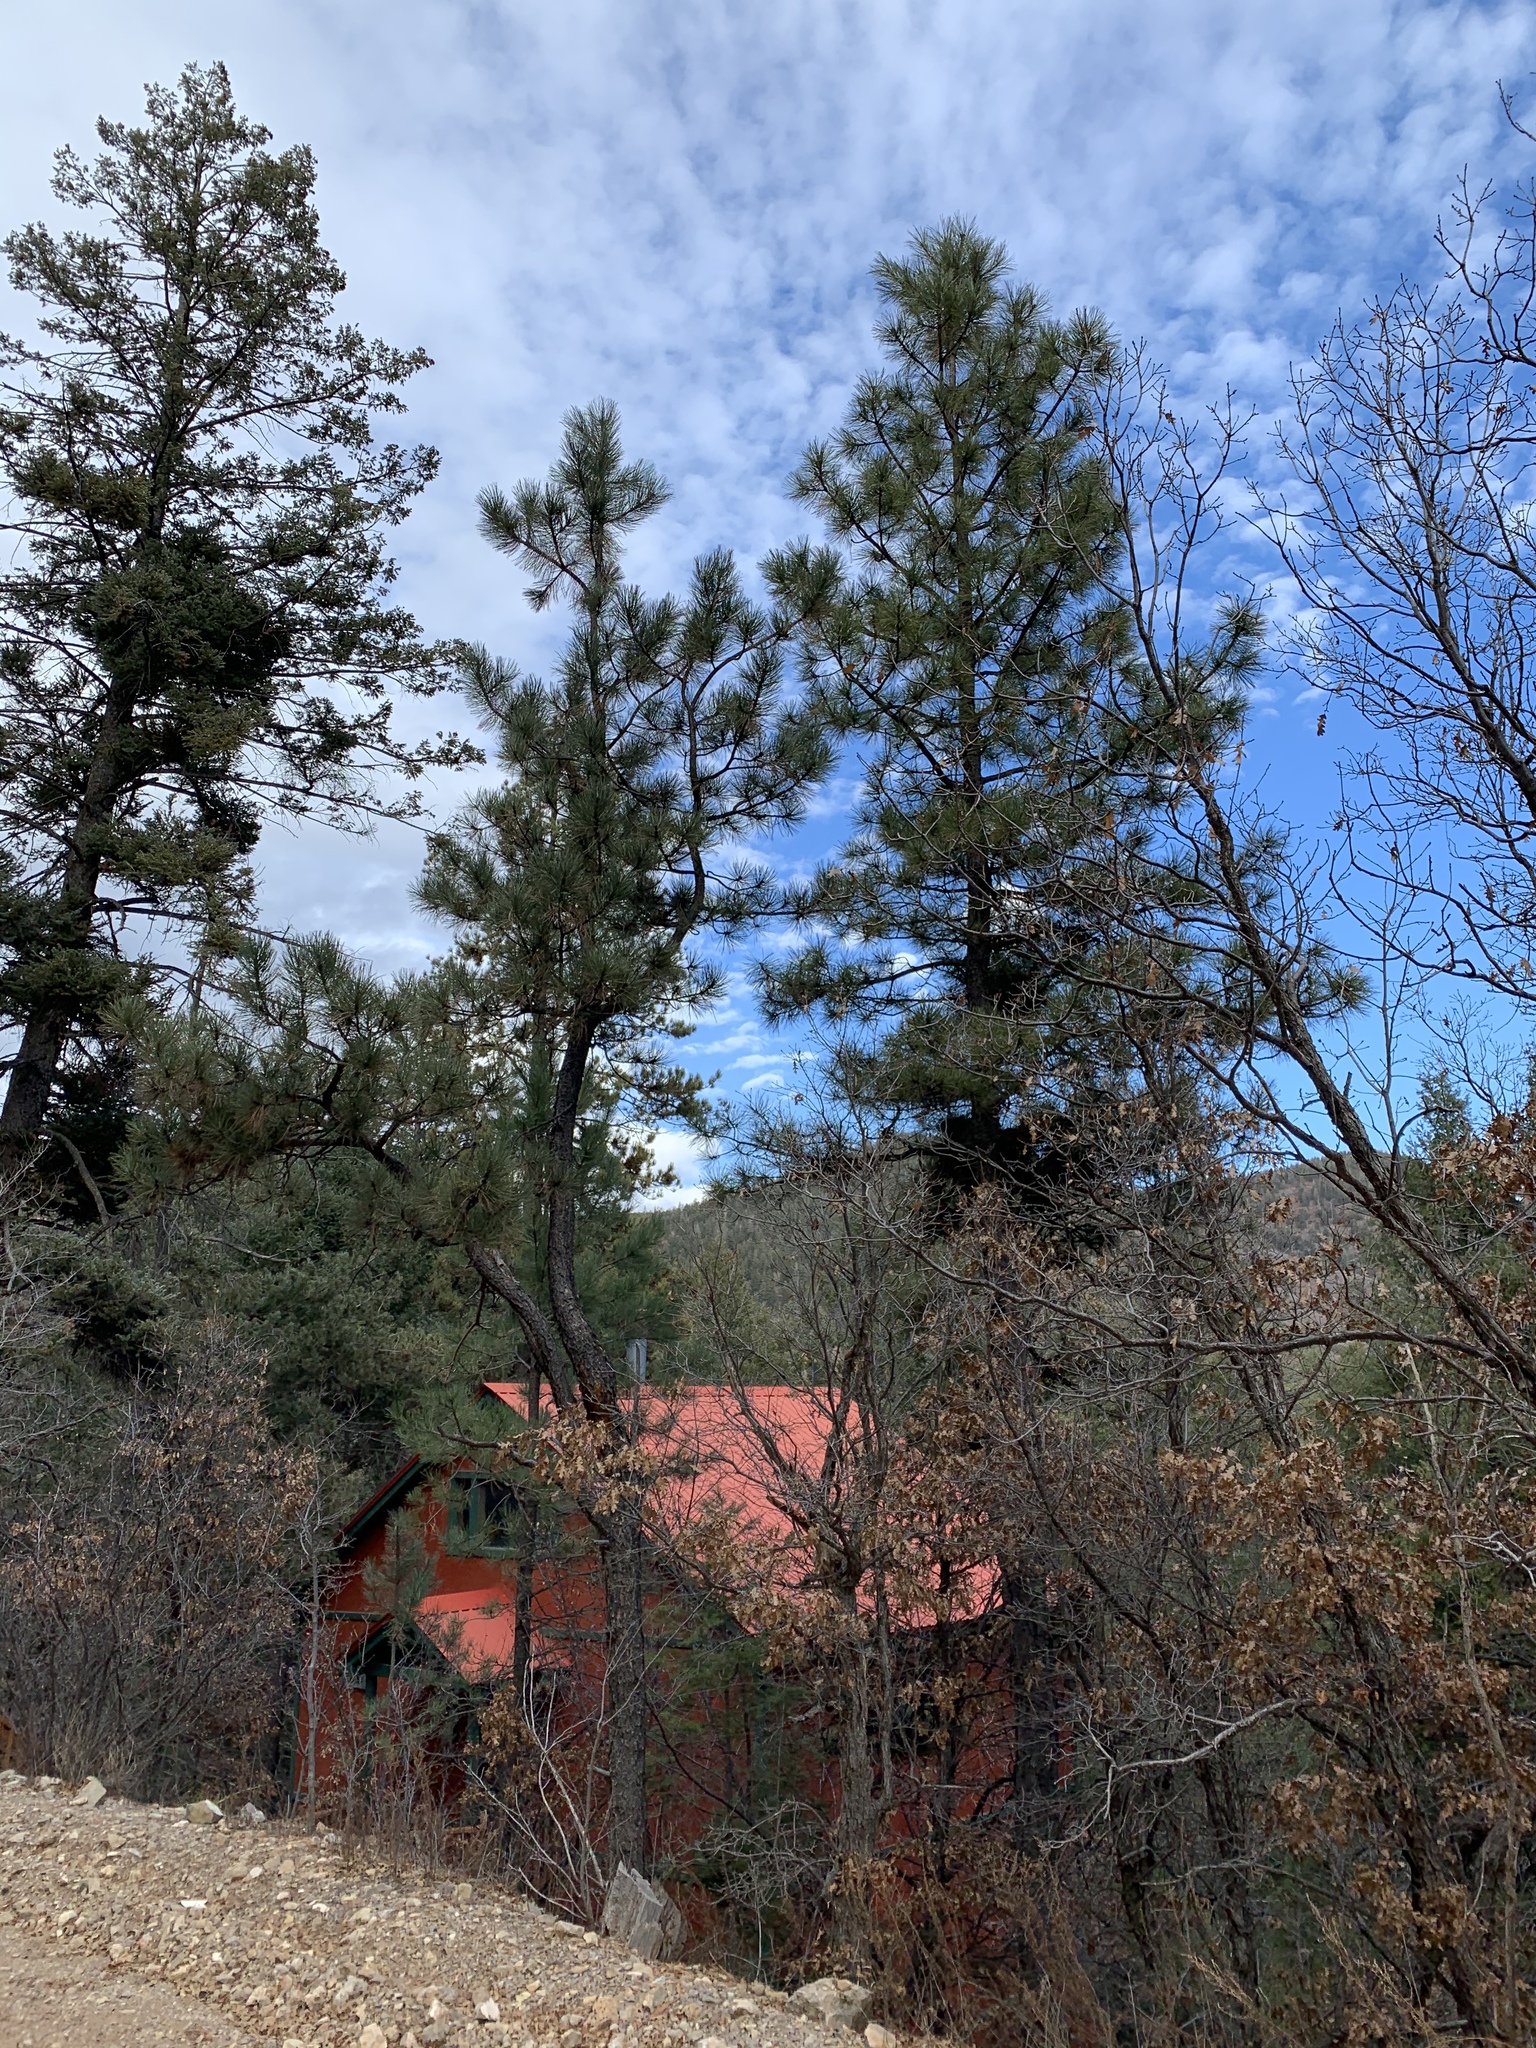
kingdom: Plantae
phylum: Tracheophyta
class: Pinopsida
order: Pinales
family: Pinaceae
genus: Pinus
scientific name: Pinus ponderosa
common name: Western yellow-pine
